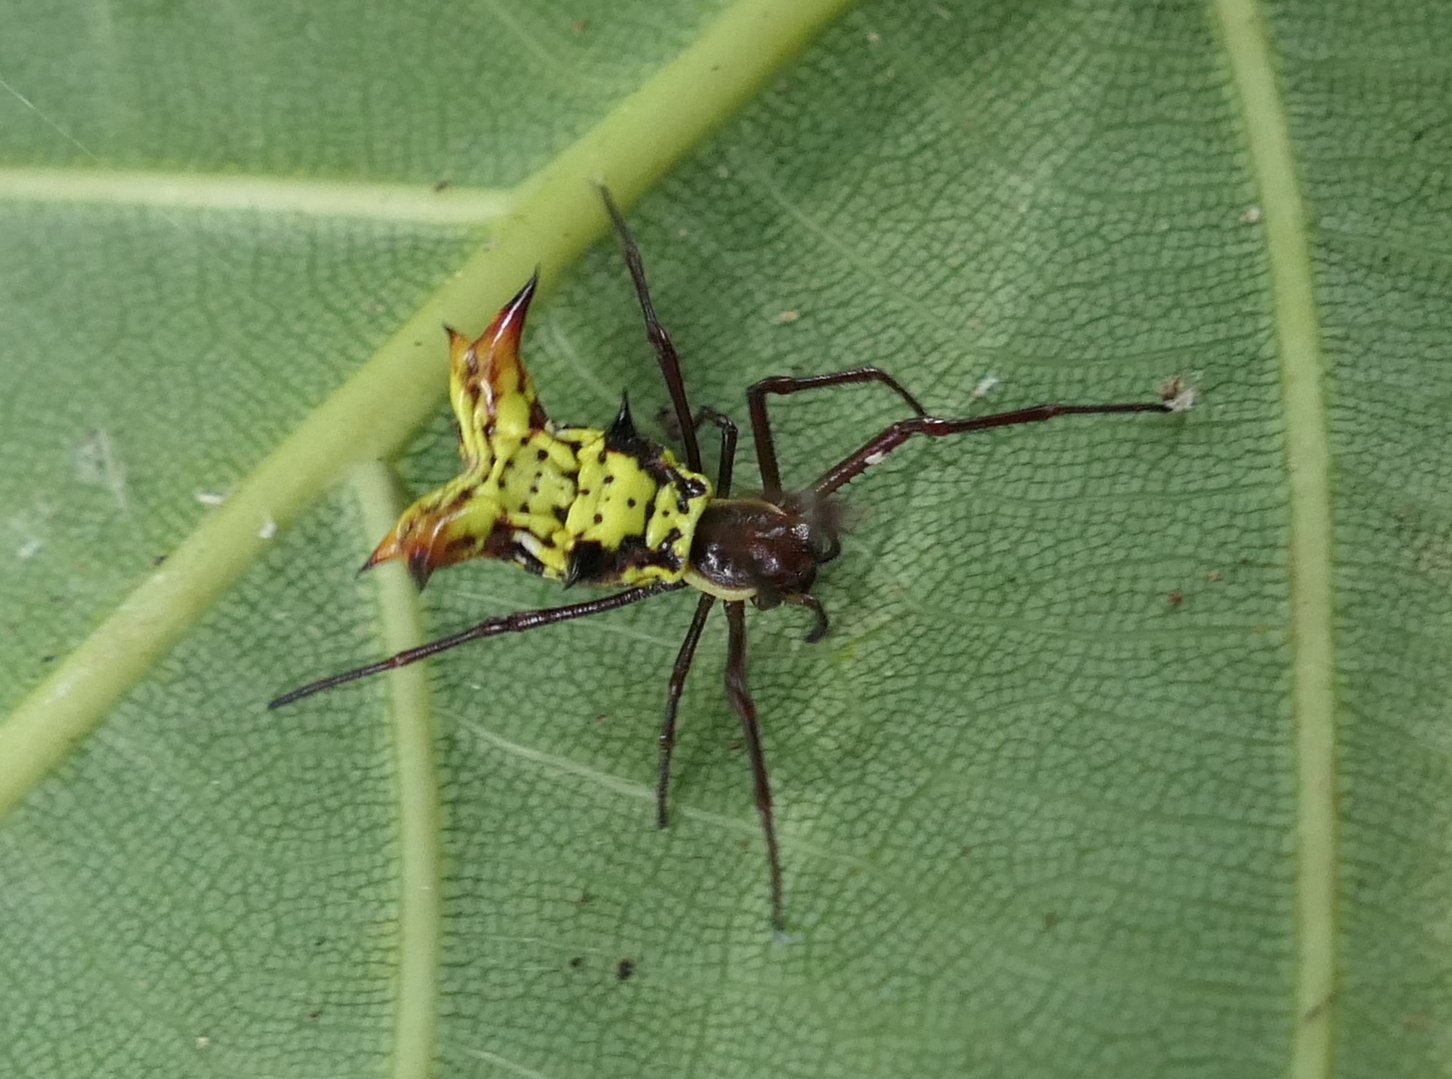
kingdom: Animalia
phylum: Arthropoda
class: Arachnida
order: Araneae
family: Araneidae
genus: Micrathena
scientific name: Micrathena fissispina
